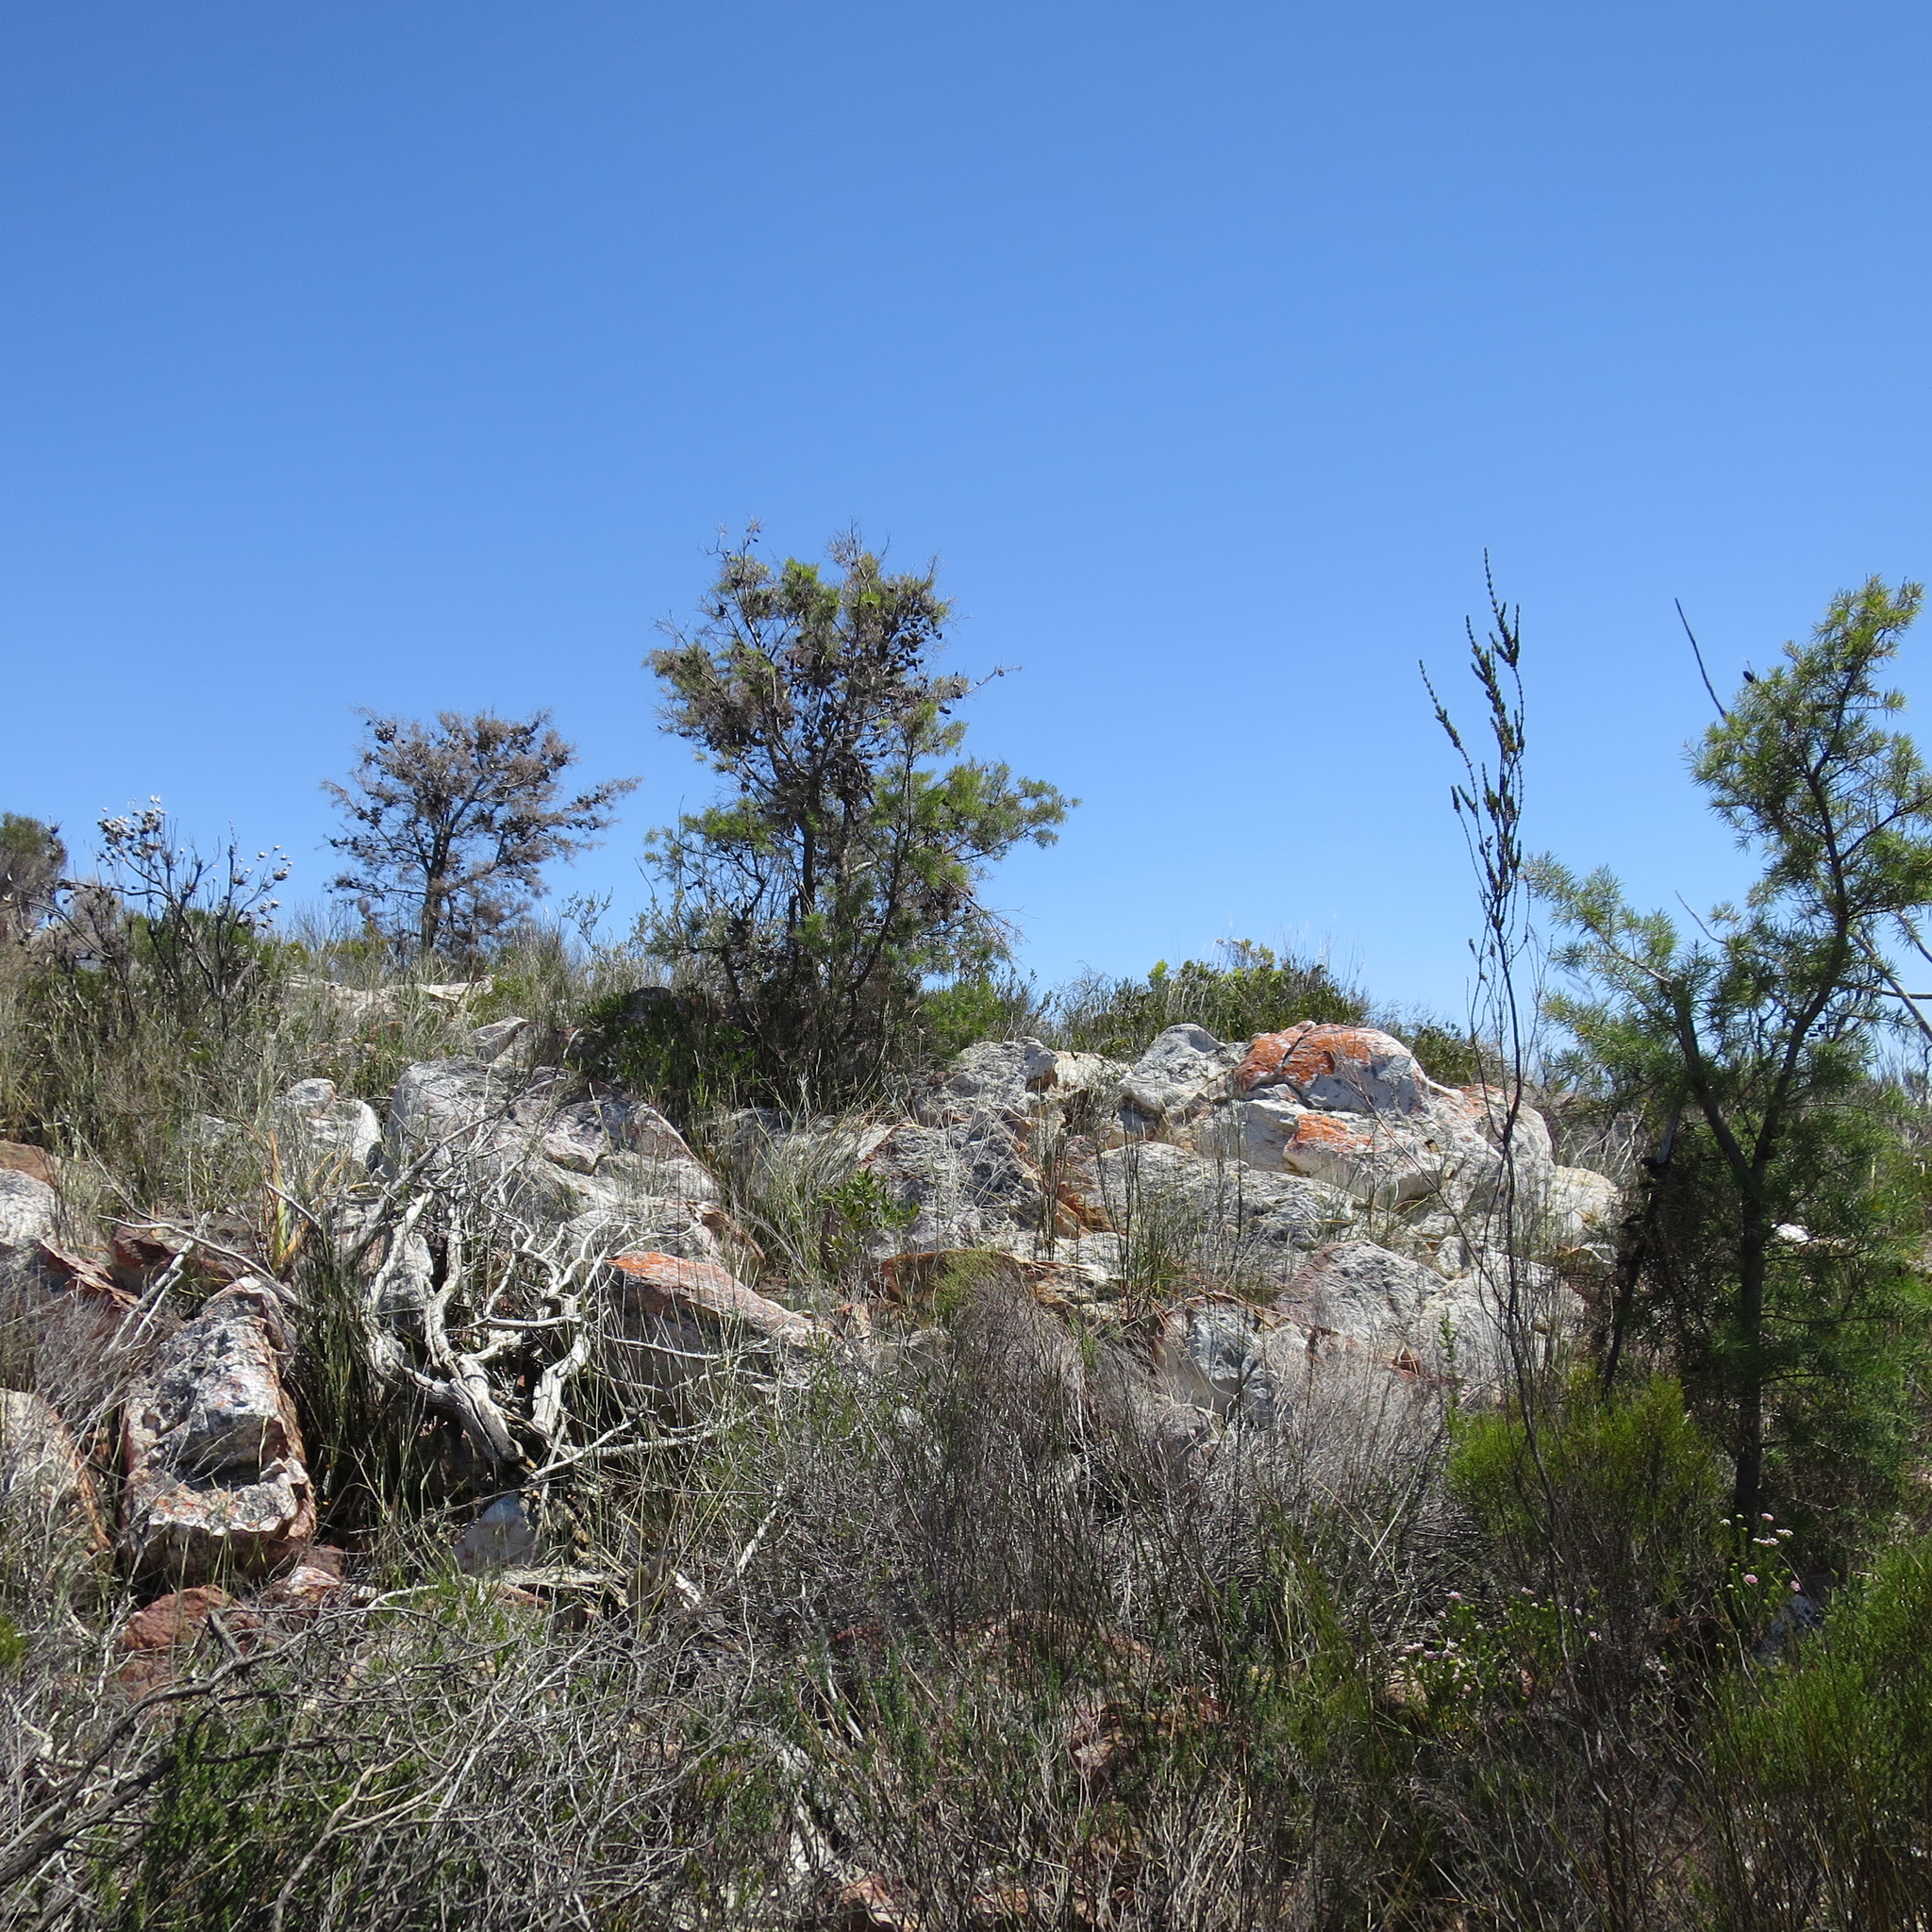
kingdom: Plantae
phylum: Tracheophyta
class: Magnoliopsida
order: Proteales
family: Proteaceae
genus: Hakea
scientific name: Hakea sericea
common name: Needle bush
